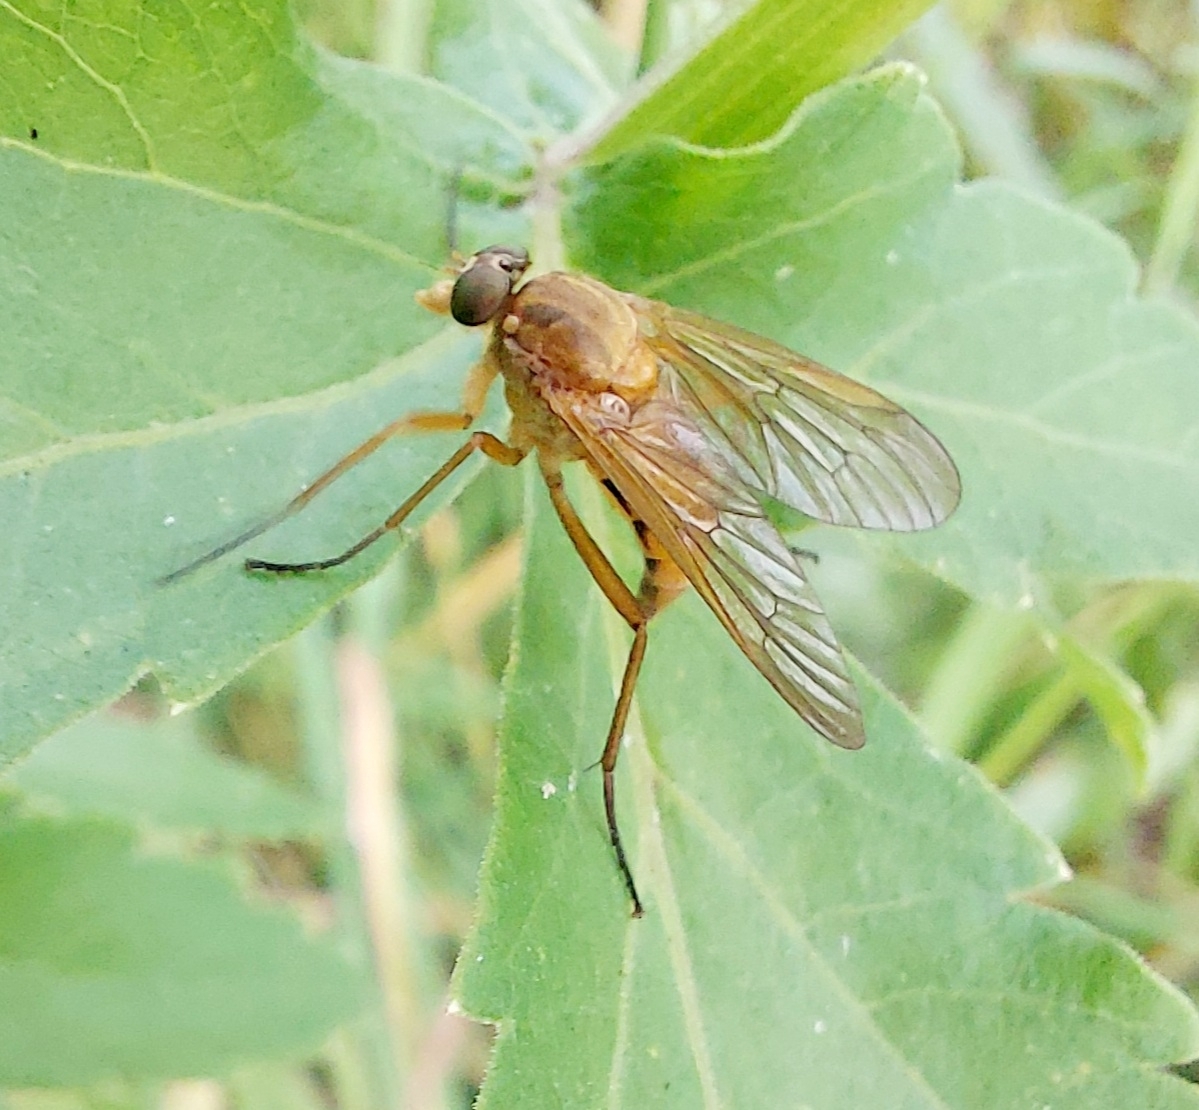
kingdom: Animalia
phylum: Arthropoda
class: Insecta
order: Diptera
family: Rhagionidae
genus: Rhagio
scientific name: Rhagio tringaria
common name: Marsh snipefly
